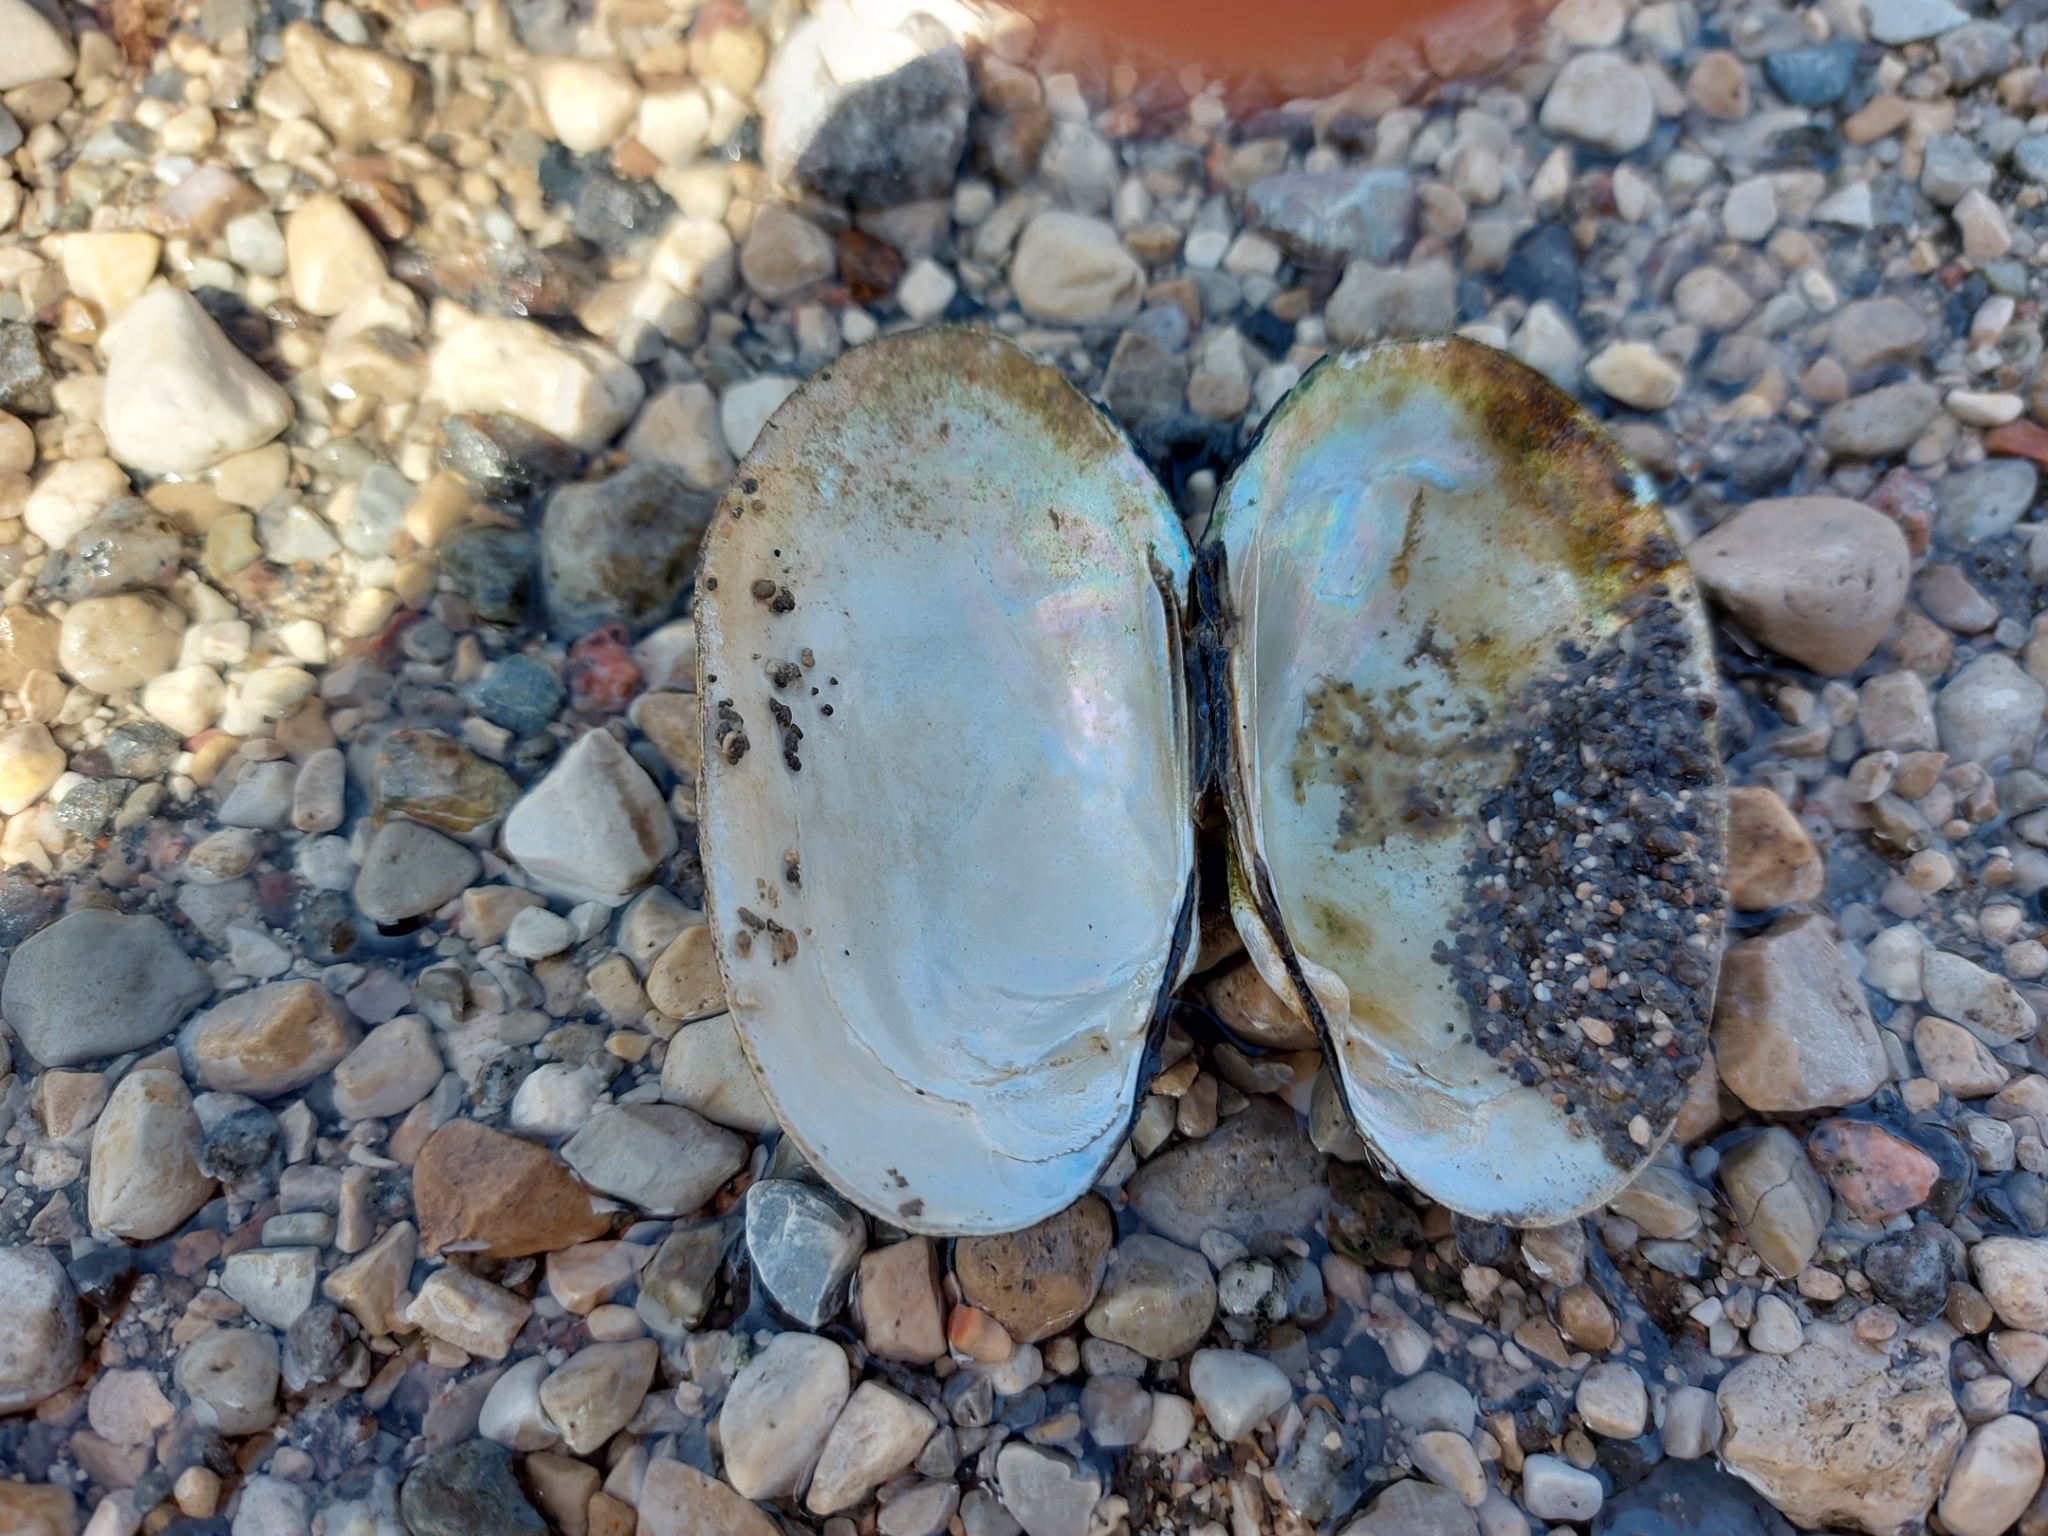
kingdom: Animalia
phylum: Mollusca
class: Bivalvia
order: Unionida
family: Unionidae
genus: Lampsilis
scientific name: Lampsilis siliquoidea
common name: Fatmucket
